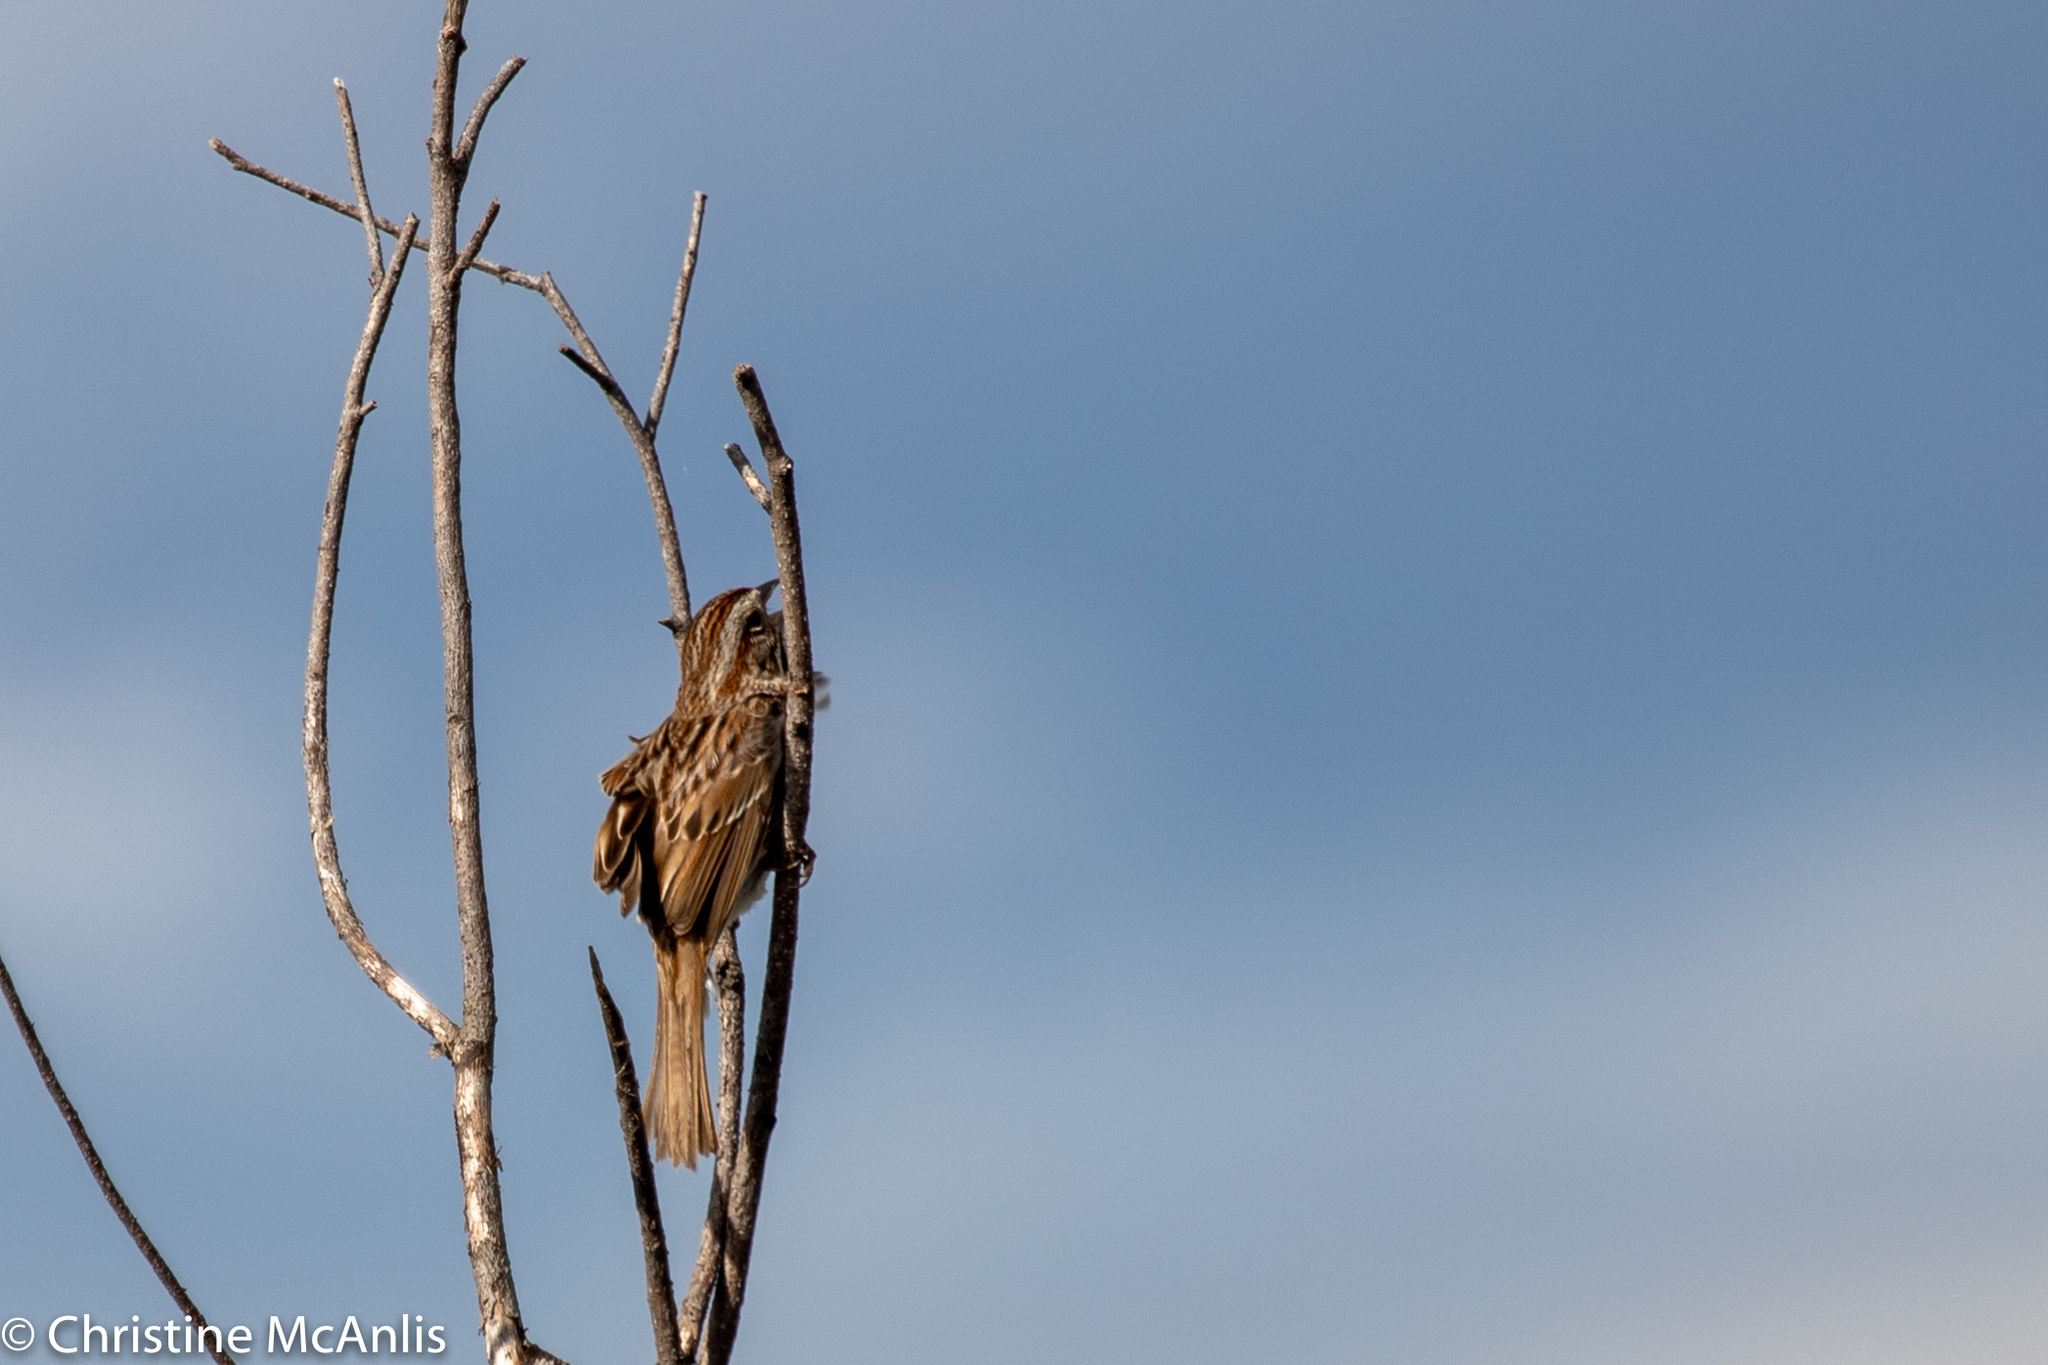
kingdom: Animalia
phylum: Chordata
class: Aves
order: Passeriformes
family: Passerellidae
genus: Melospiza
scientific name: Melospiza melodia
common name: Song sparrow
